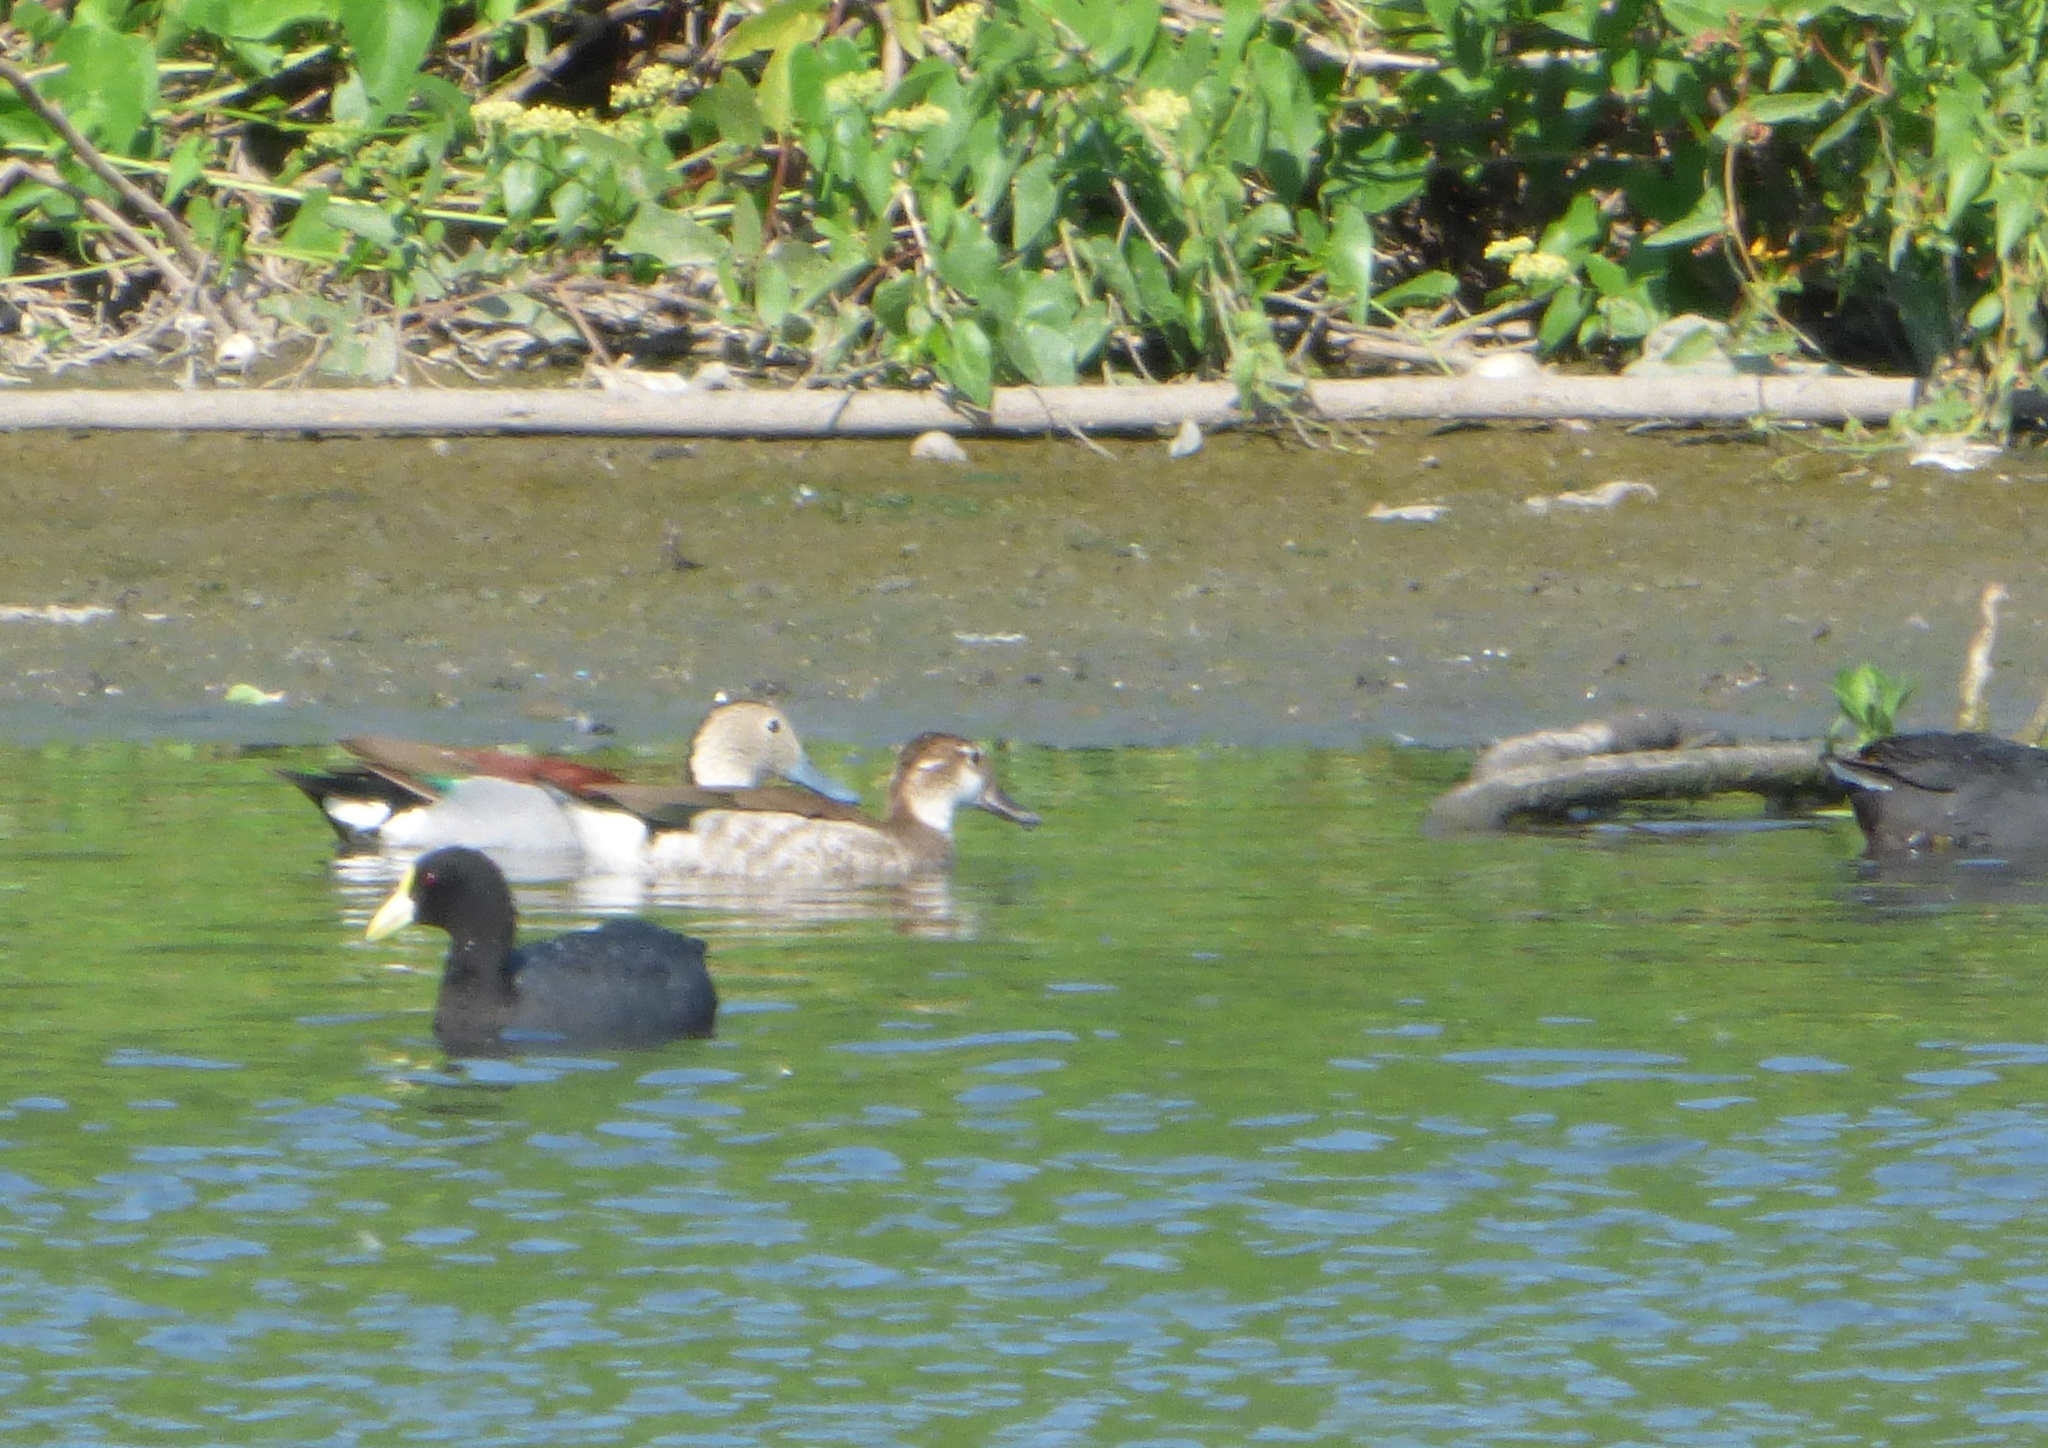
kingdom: Animalia
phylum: Chordata
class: Aves
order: Anseriformes
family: Anatidae
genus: Callonetta
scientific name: Callonetta leucophrys
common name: Ringed teal
